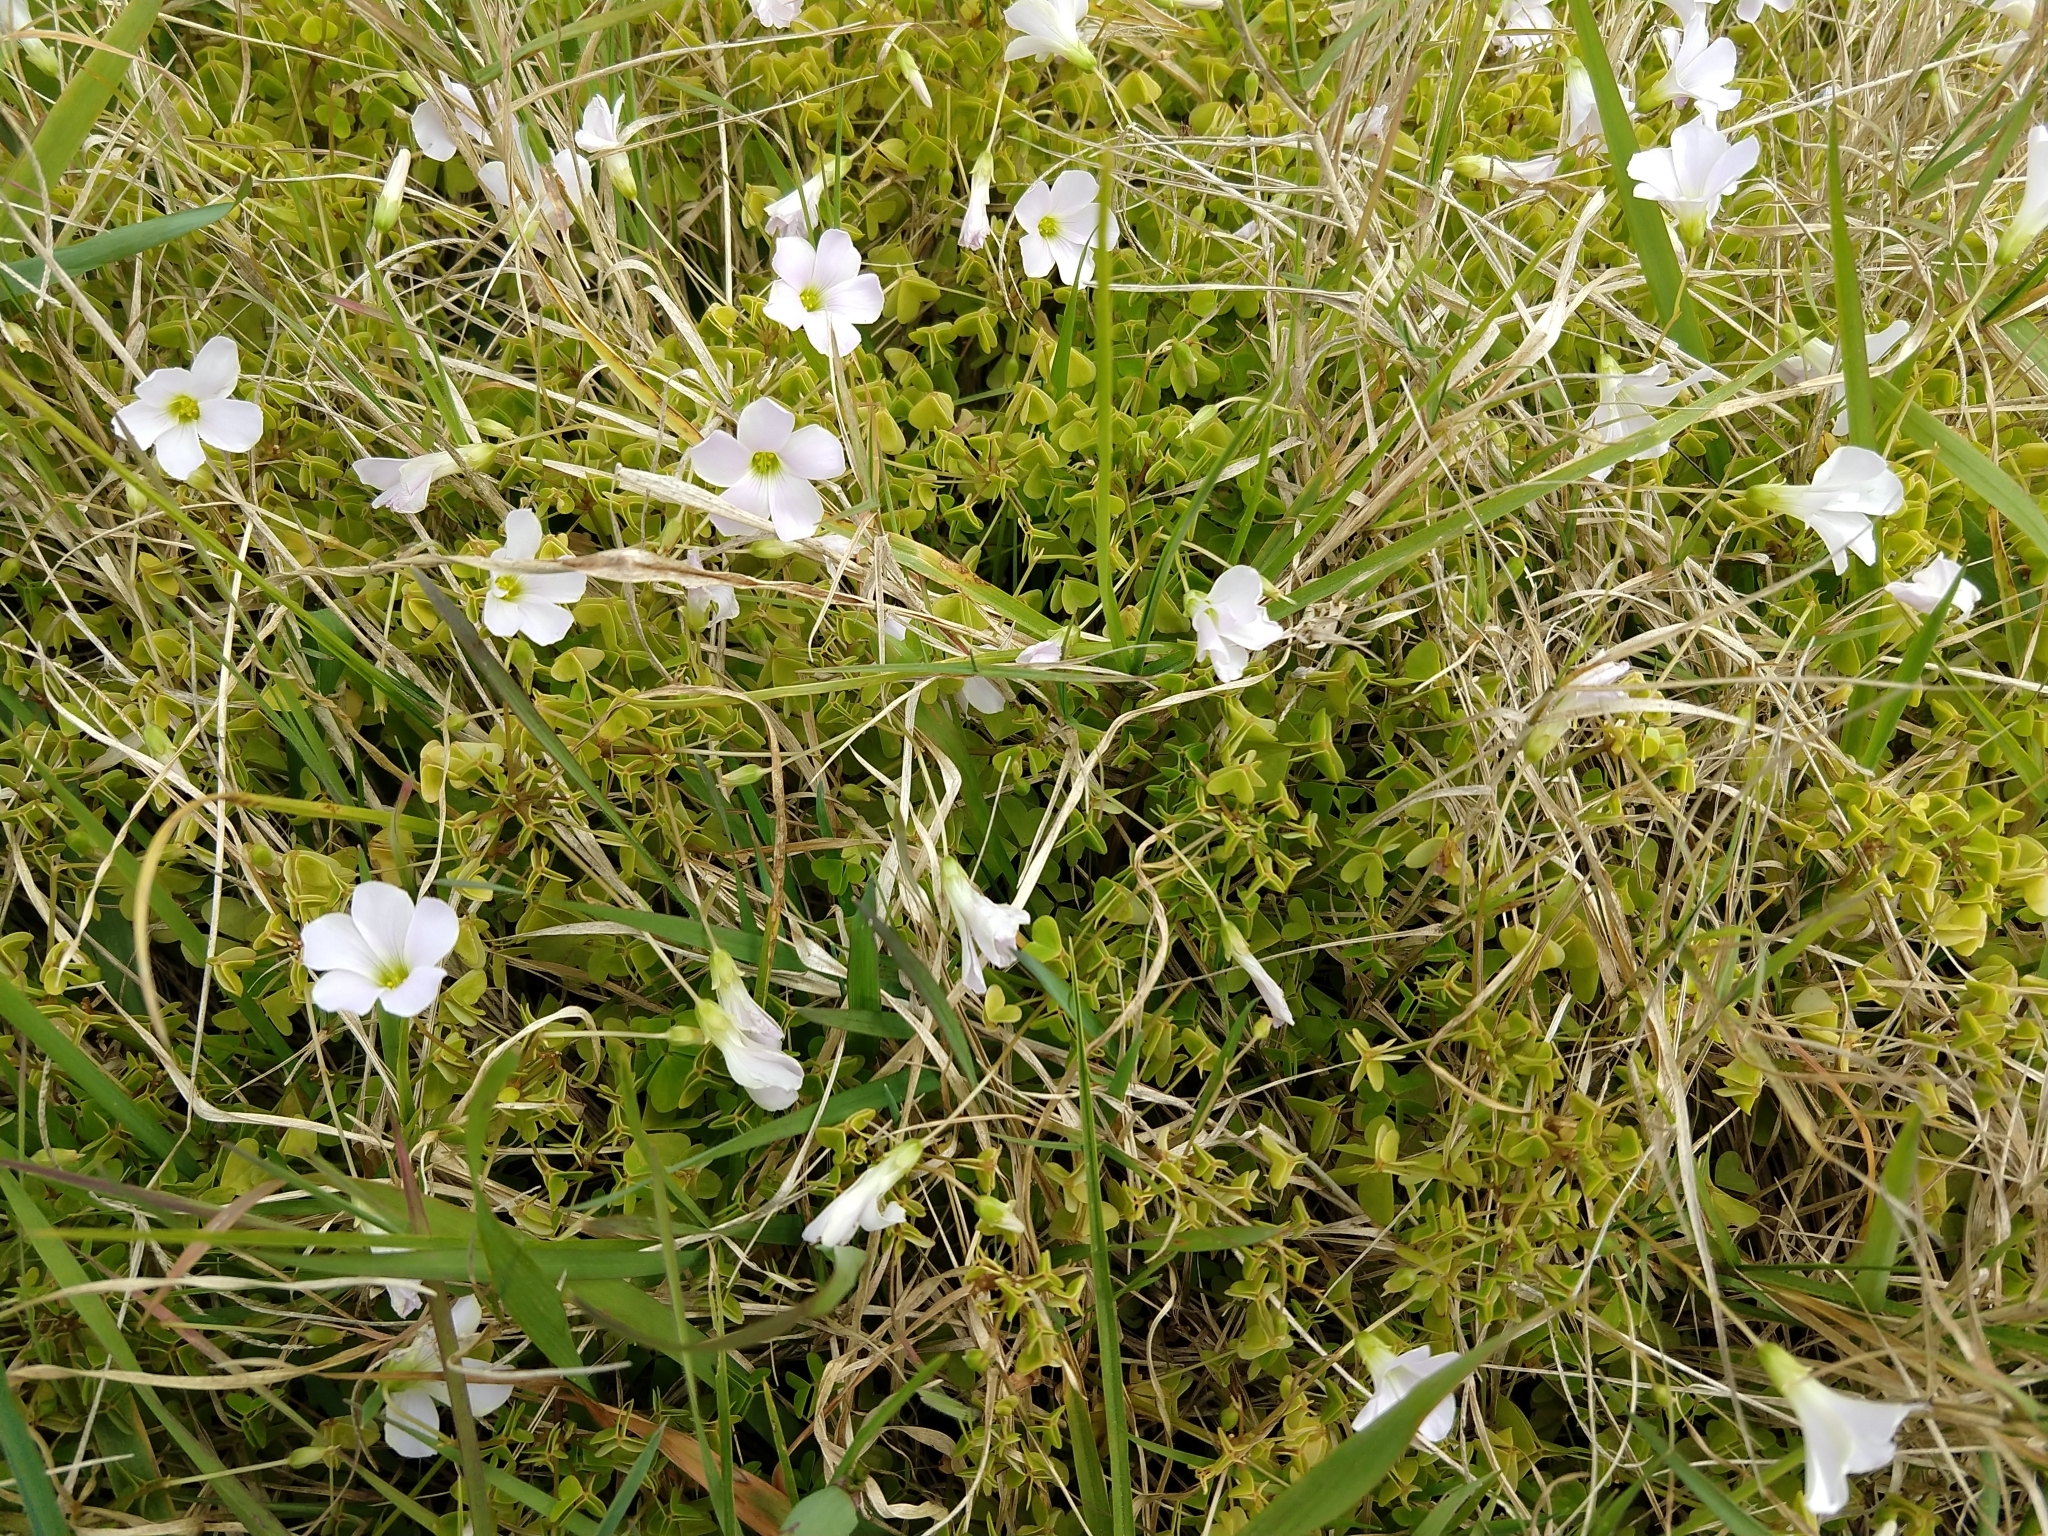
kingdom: Plantae
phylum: Tracheophyta
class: Magnoliopsida
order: Oxalidales
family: Oxalidaceae
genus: Oxalis
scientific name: Oxalis incarnata
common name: Pale pink-sorrel
